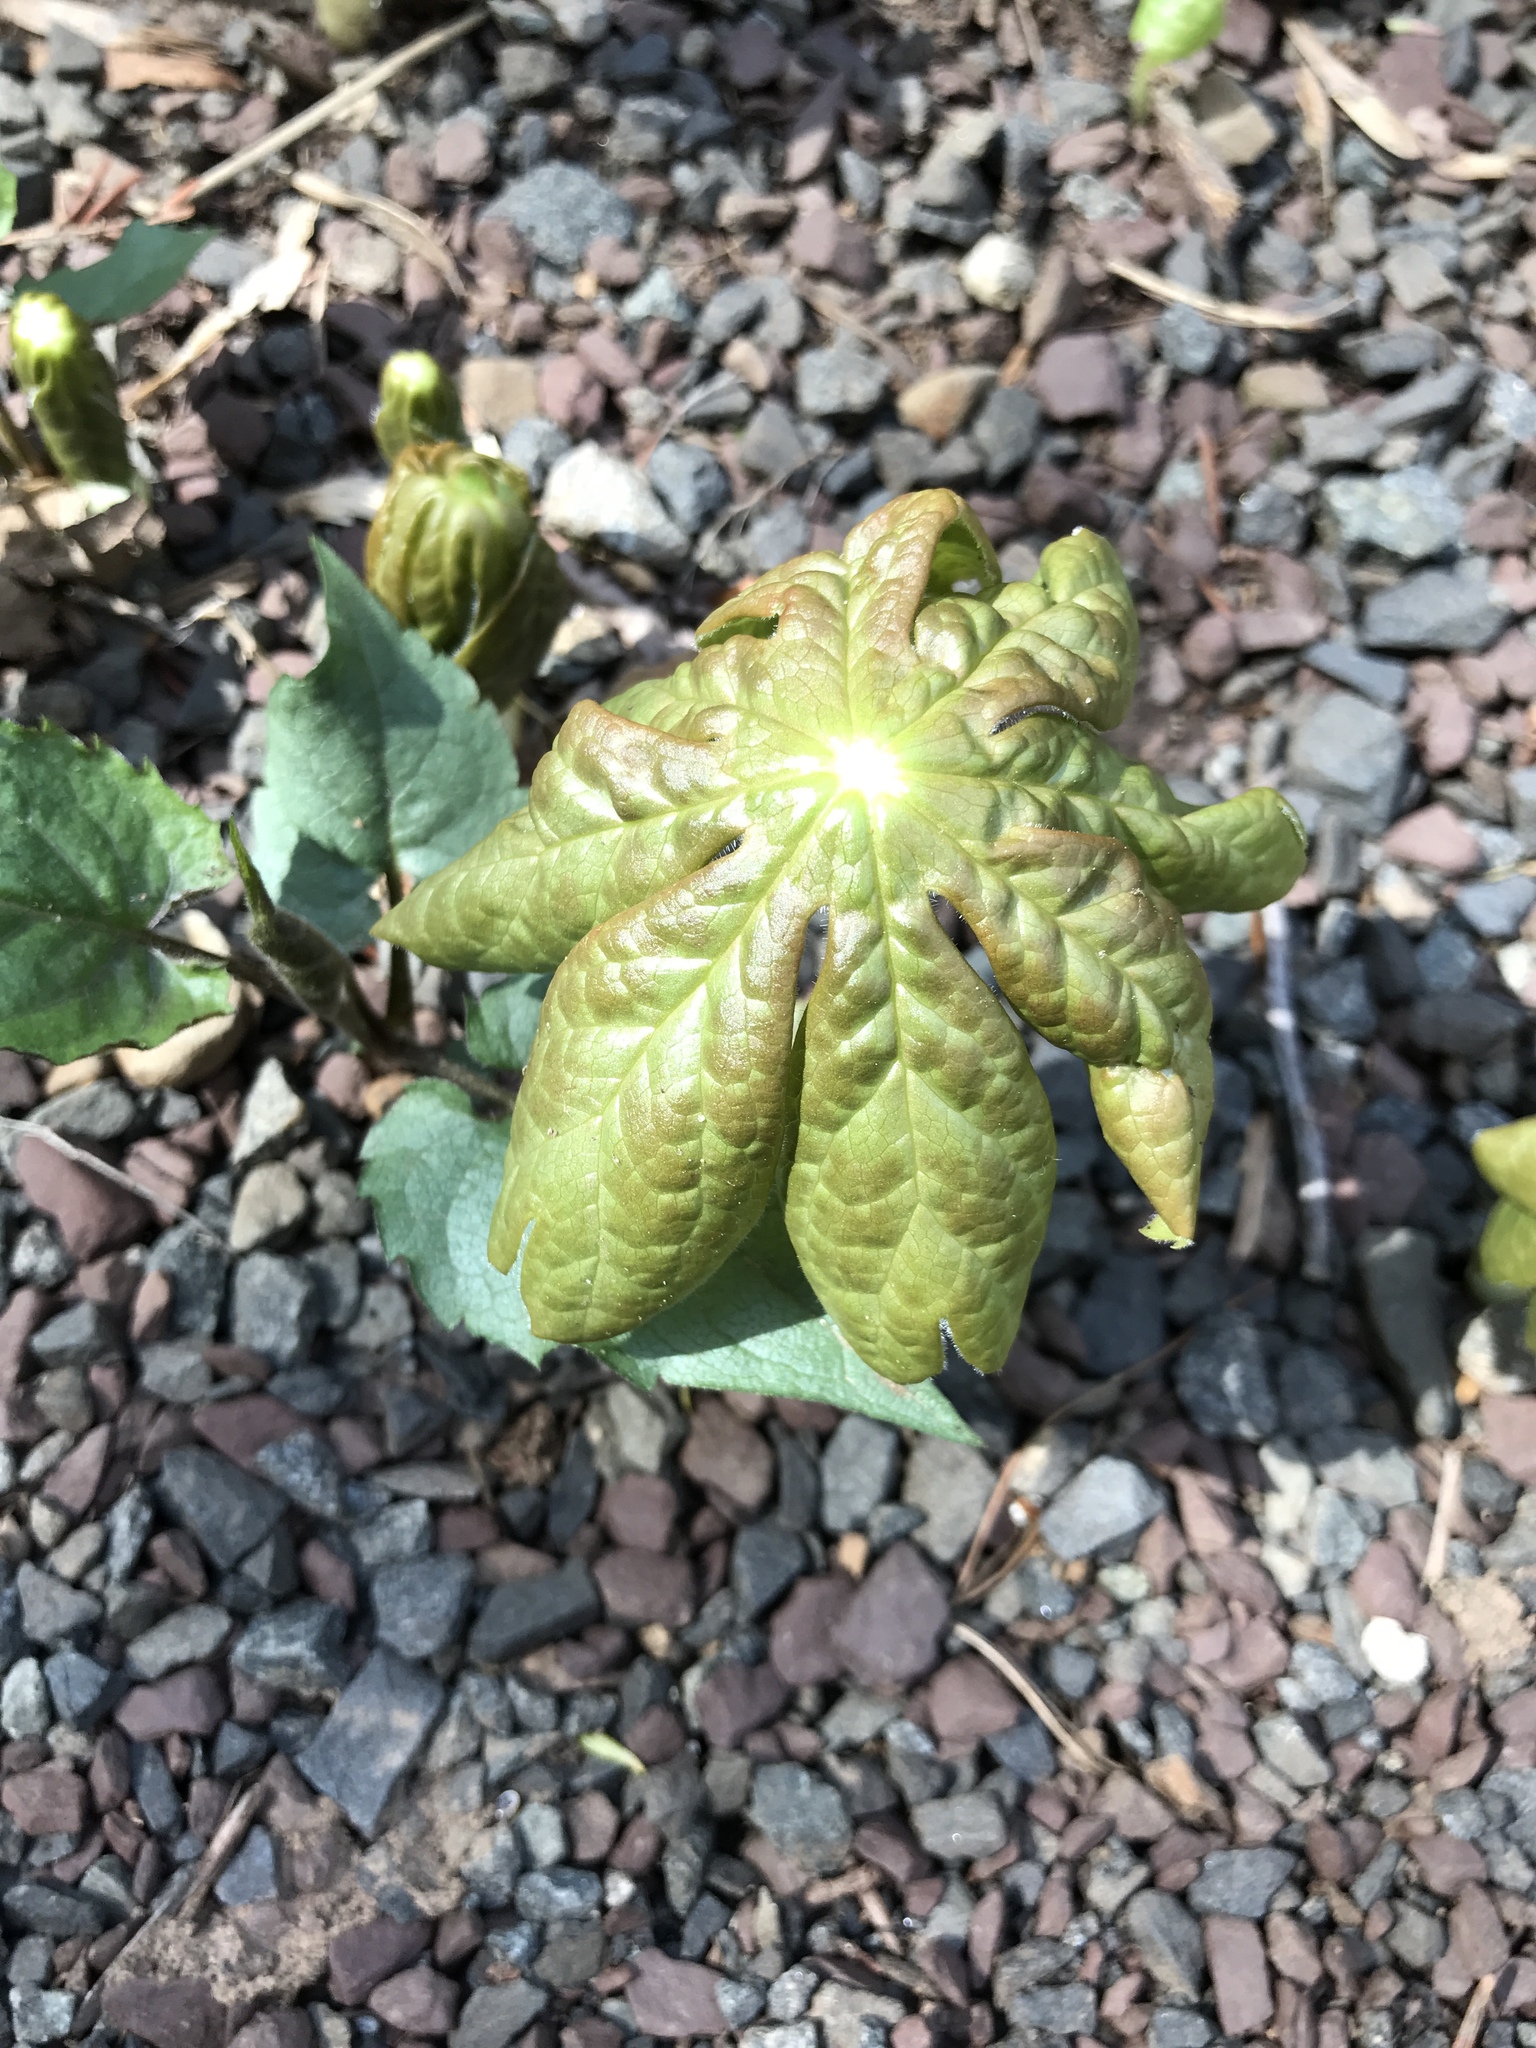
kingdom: Plantae
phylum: Tracheophyta
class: Magnoliopsida
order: Ranunculales
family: Berberidaceae
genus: Podophyllum
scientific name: Podophyllum peltatum
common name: Wild mandrake
